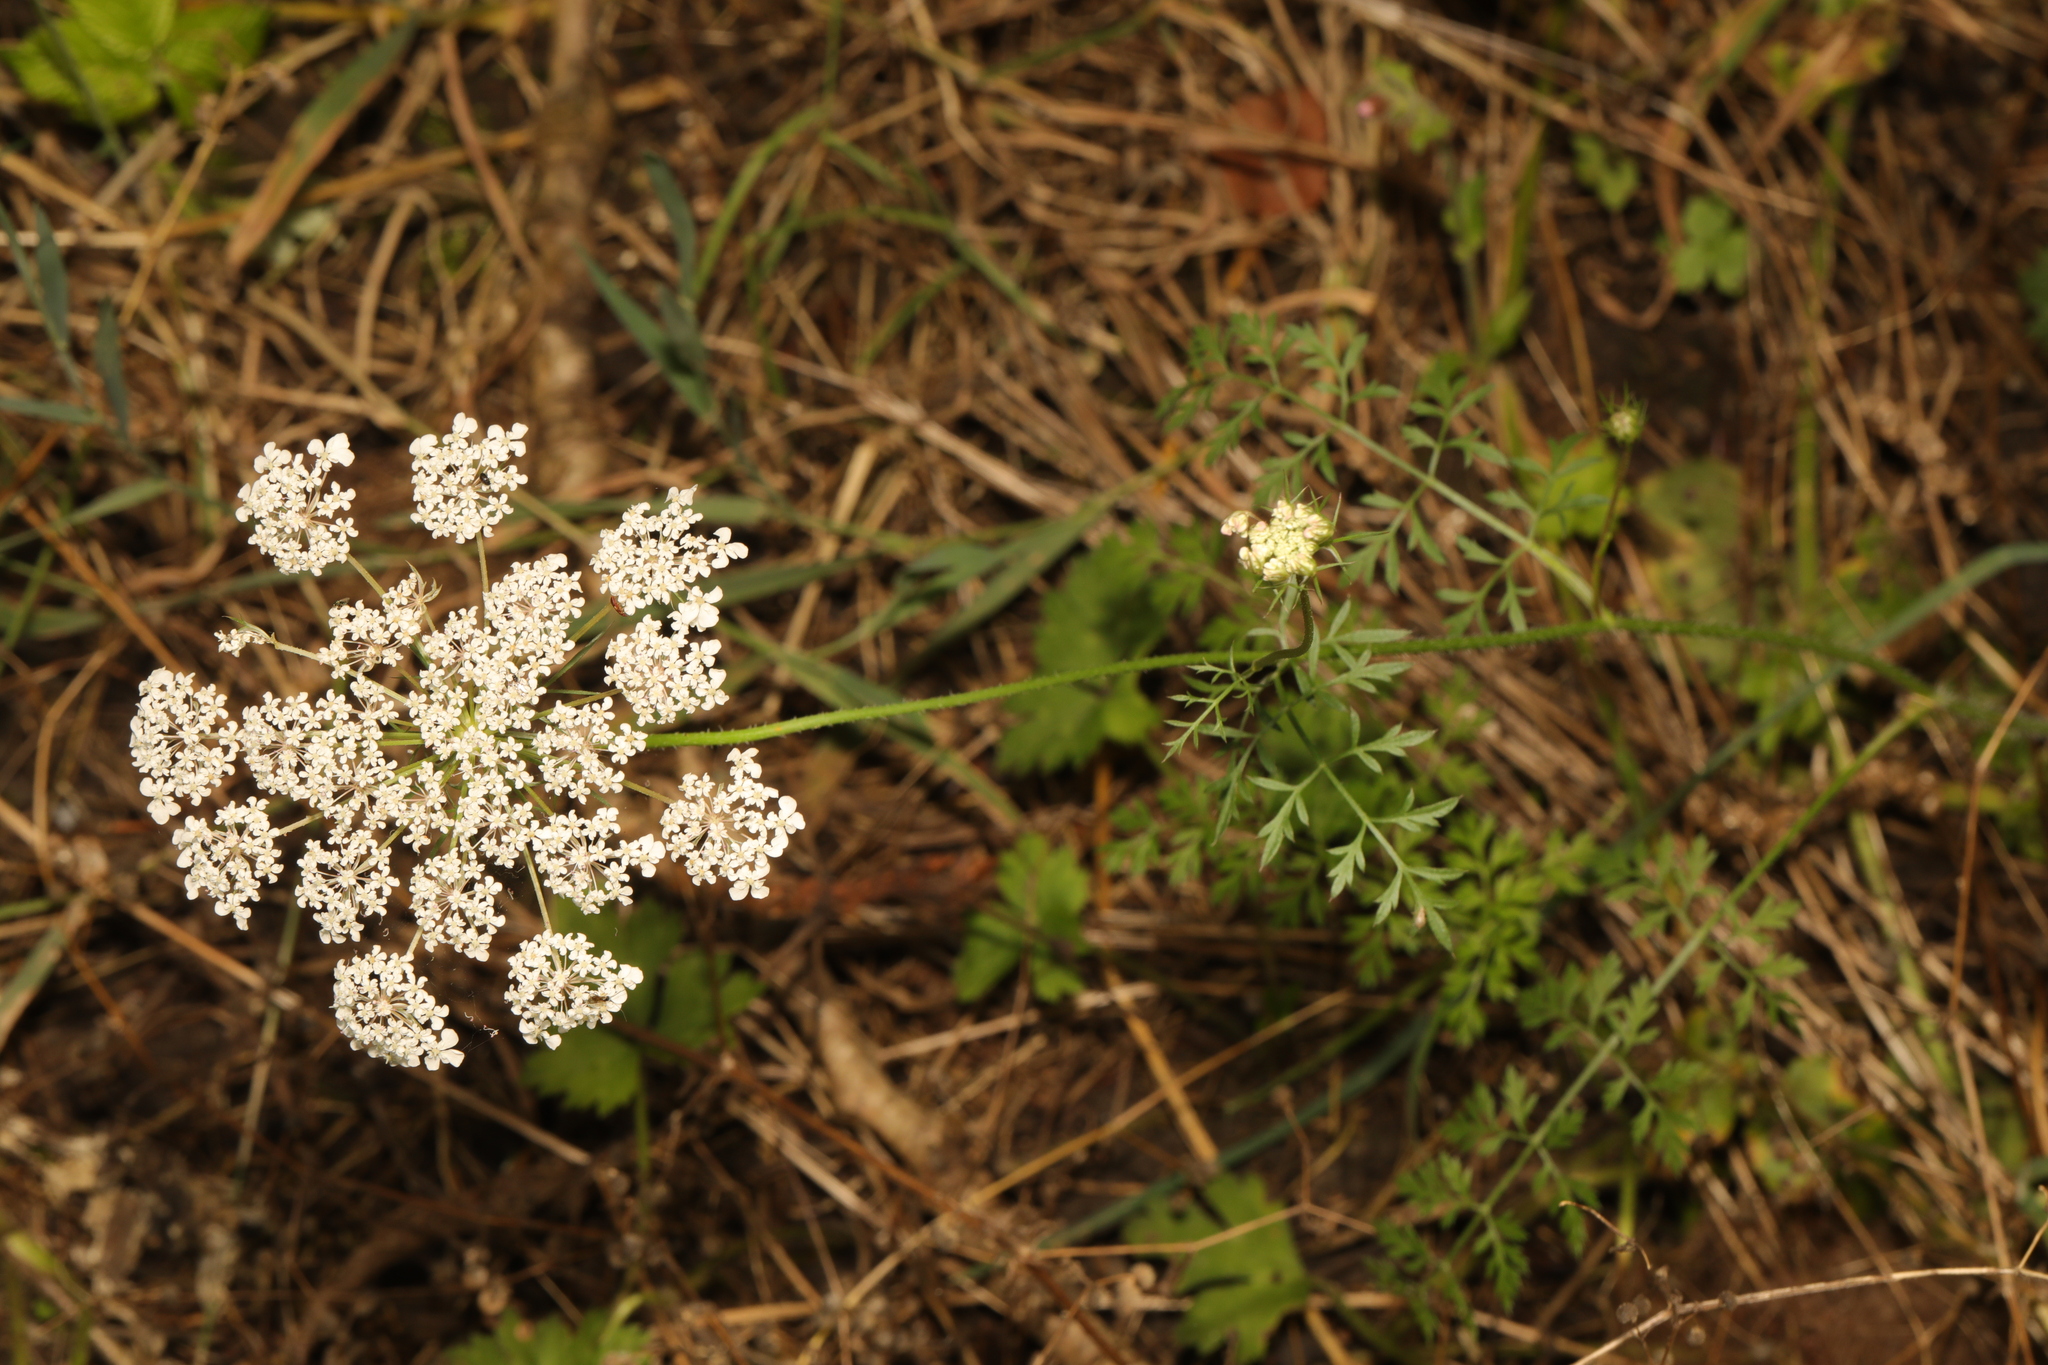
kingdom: Plantae
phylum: Tracheophyta
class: Magnoliopsida
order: Apiales
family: Apiaceae
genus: Daucus
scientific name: Daucus carota
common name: Wild carrot
